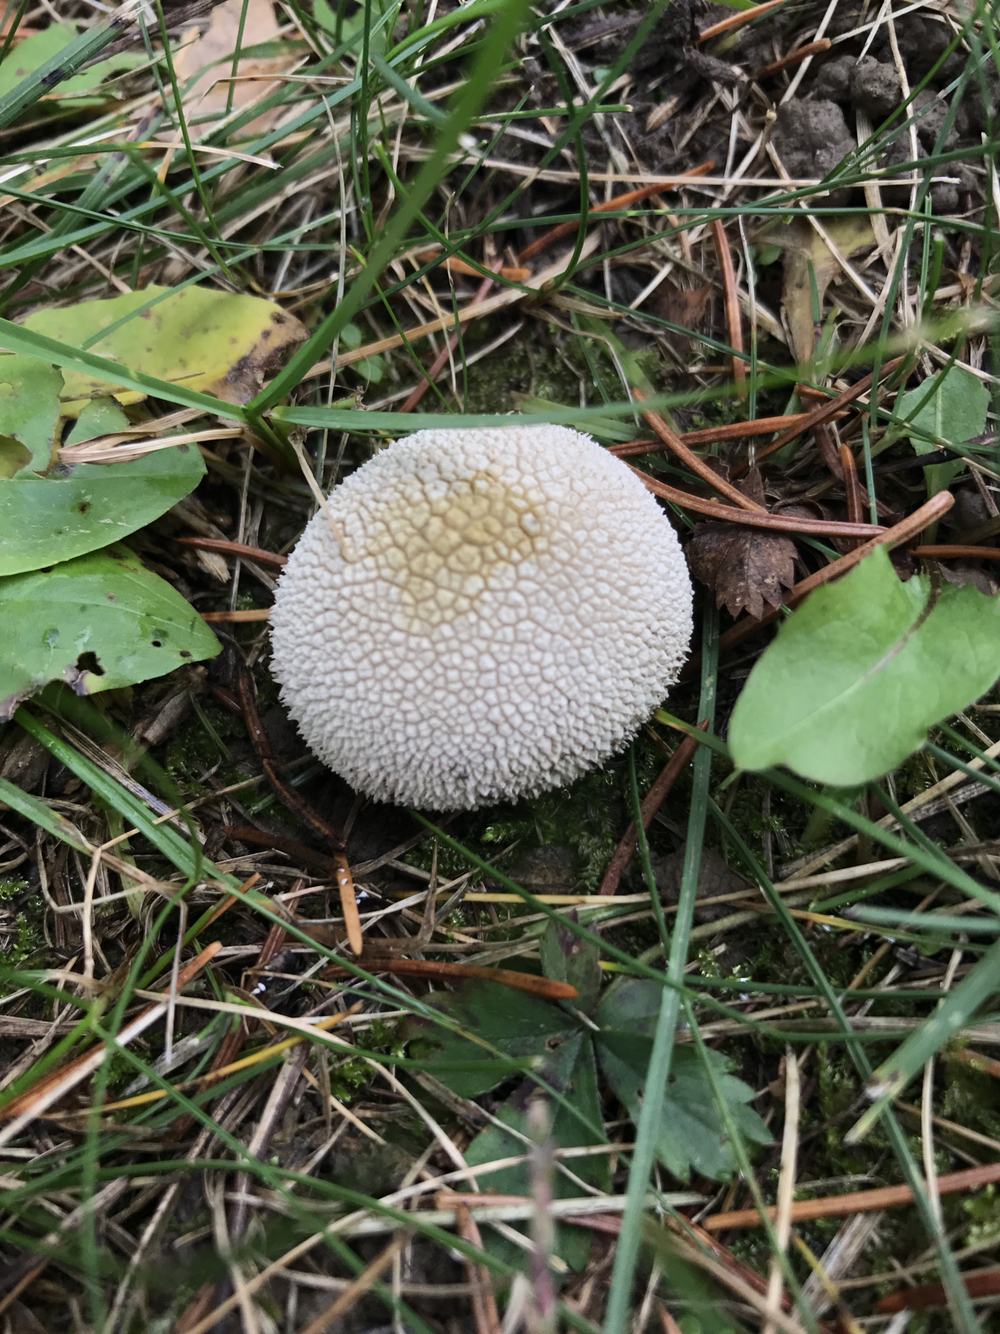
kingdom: Fungi
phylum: Basidiomycota
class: Agaricomycetes
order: Agaricales
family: Lycoperdaceae
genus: Lycoperdon
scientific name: Lycoperdon perlatum
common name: Common puffball
